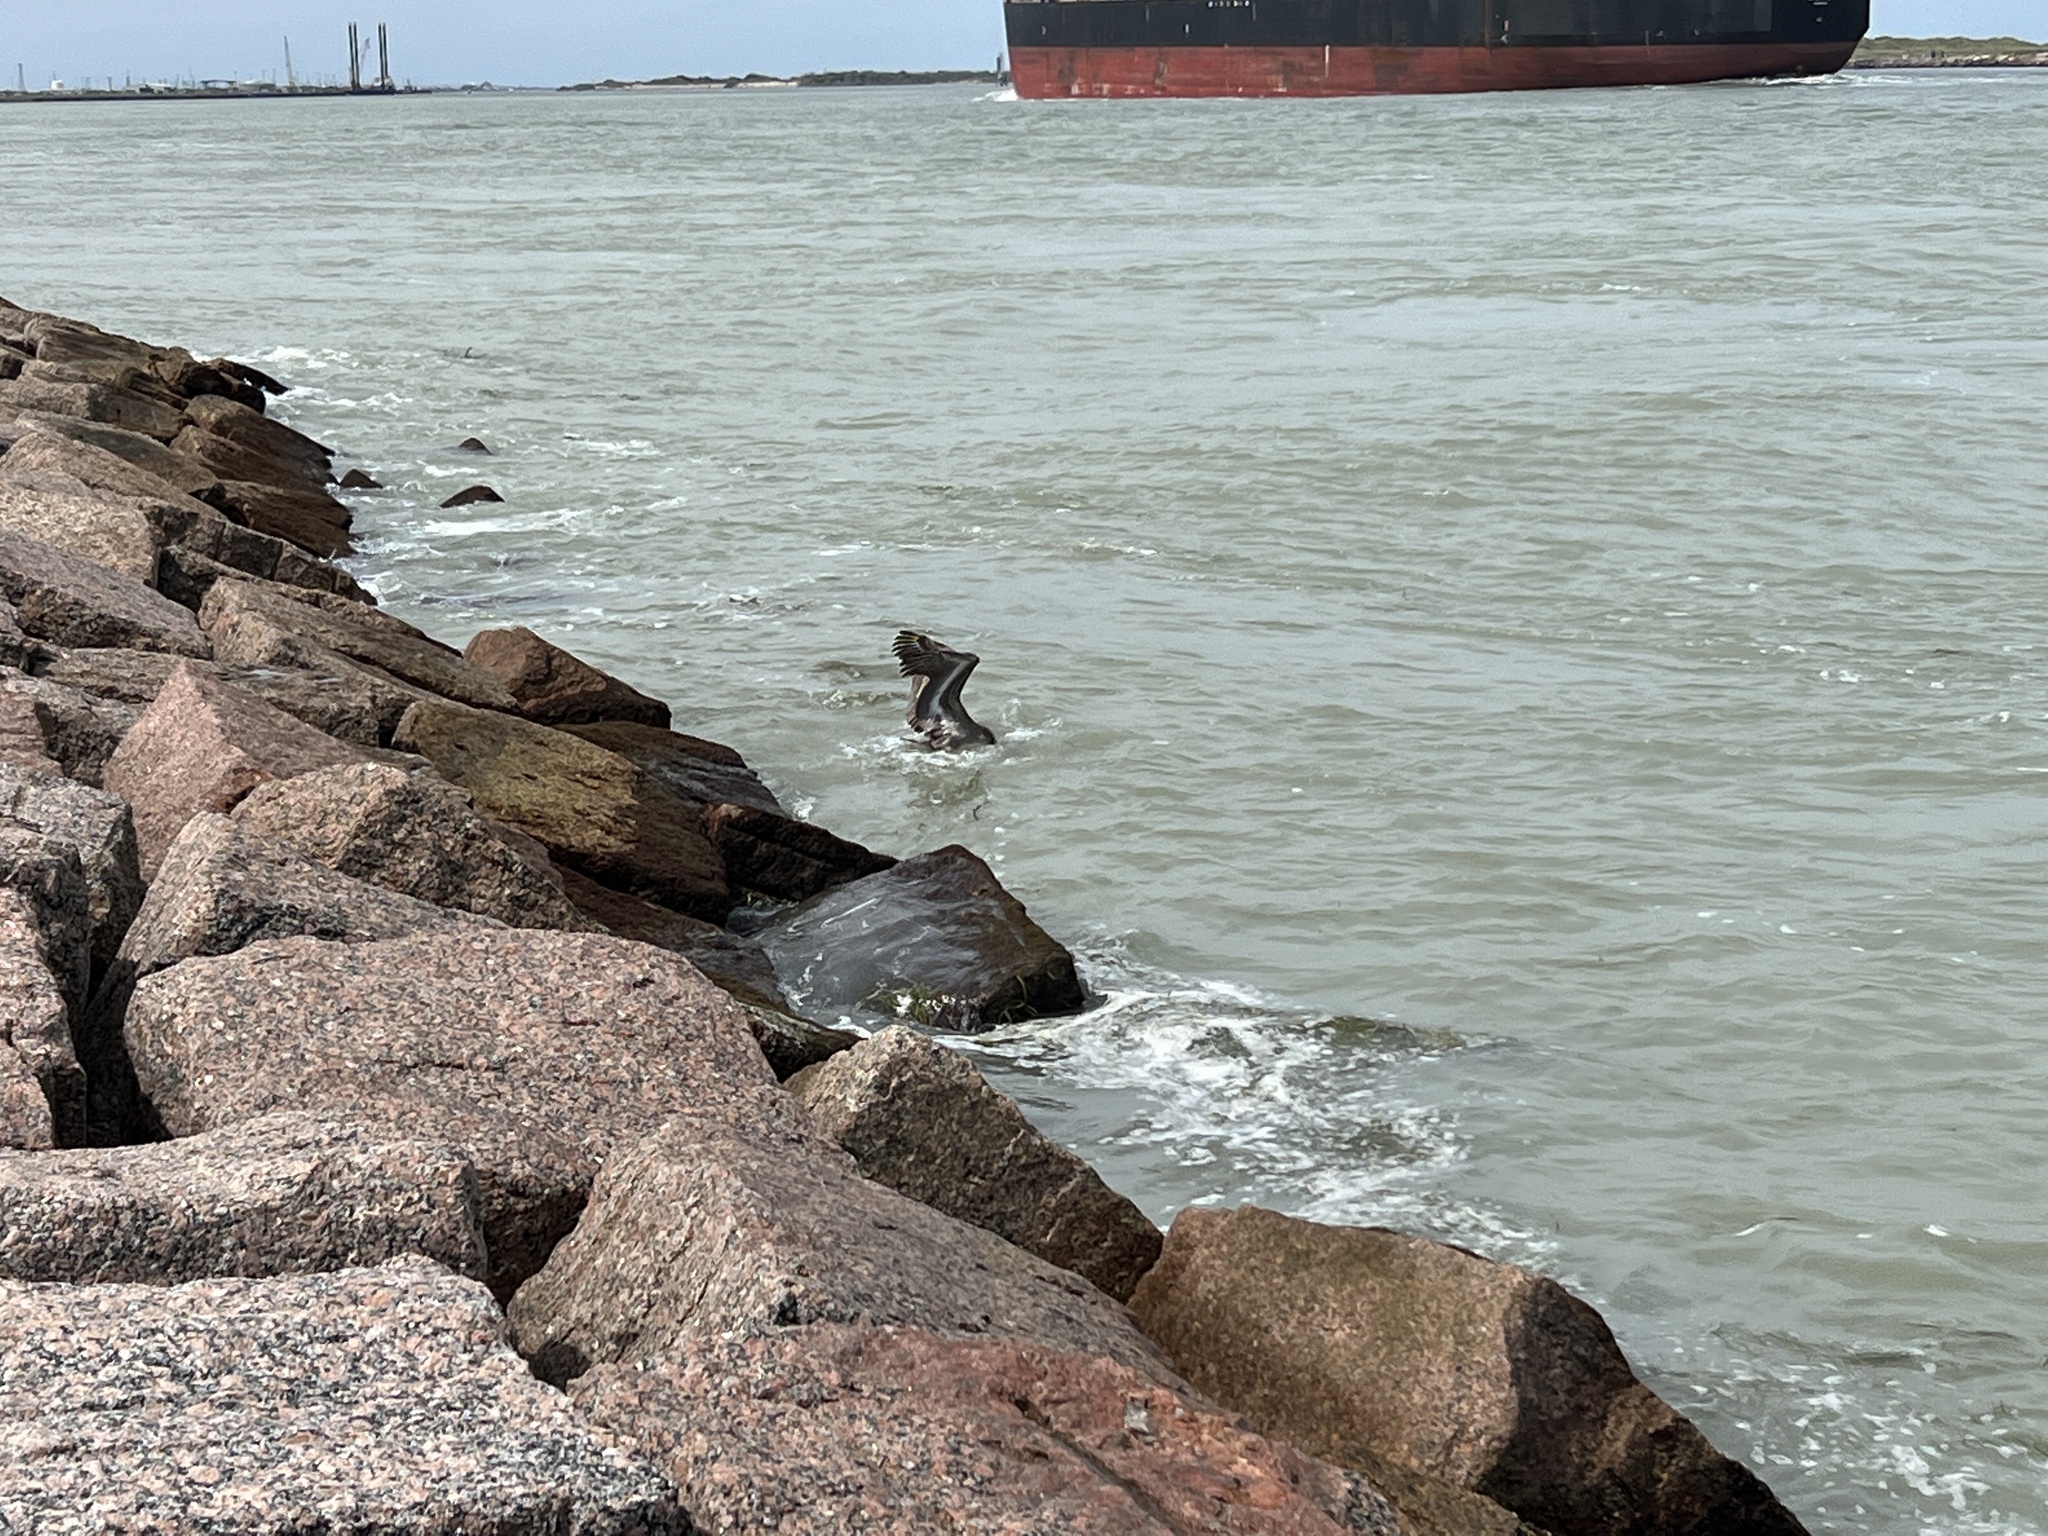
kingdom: Animalia
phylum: Chordata
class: Aves
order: Pelecaniformes
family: Pelecanidae
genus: Pelecanus
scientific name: Pelecanus occidentalis
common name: Brown pelican
